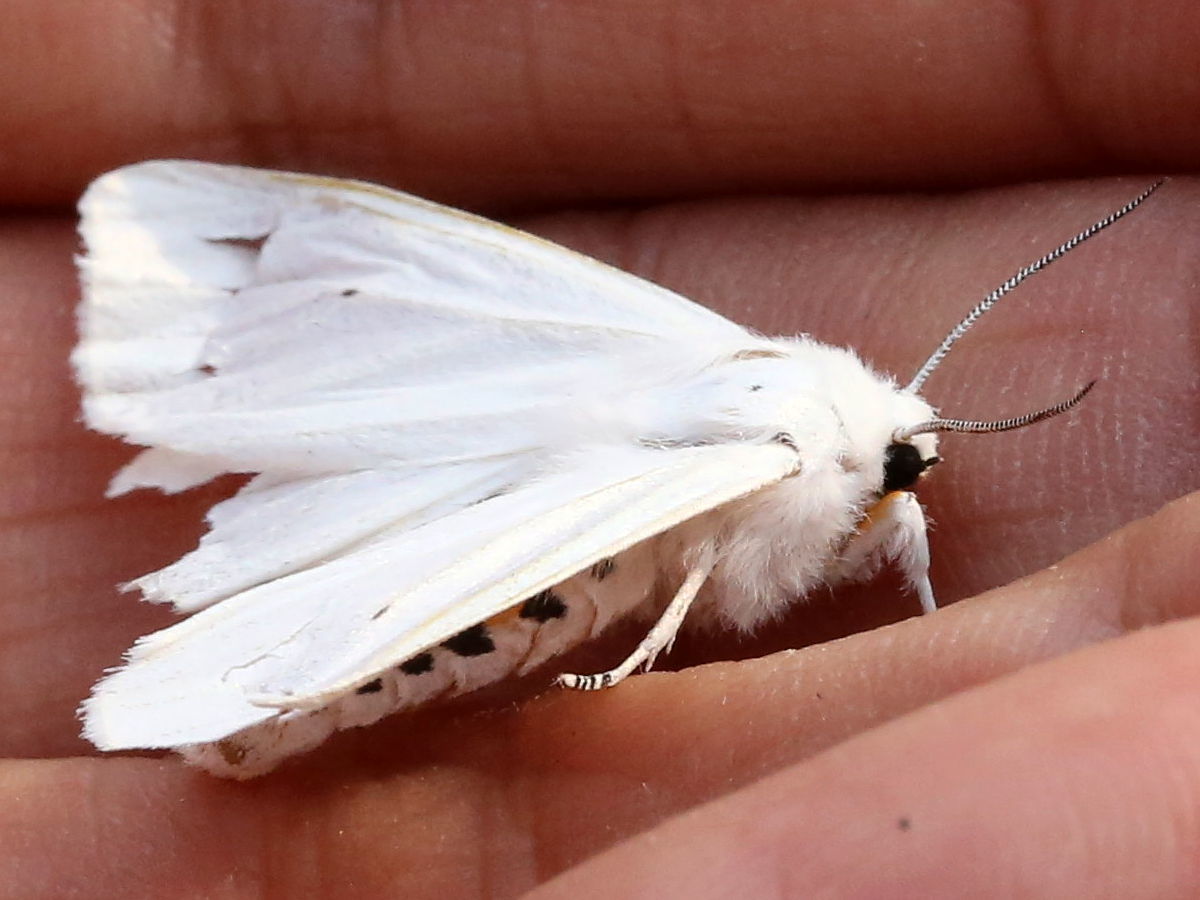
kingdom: Animalia
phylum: Arthropoda
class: Insecta
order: Lepidoptera
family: Erebidae
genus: Spilosoma
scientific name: Spilosoma virginica
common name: Virginia tiger moth
